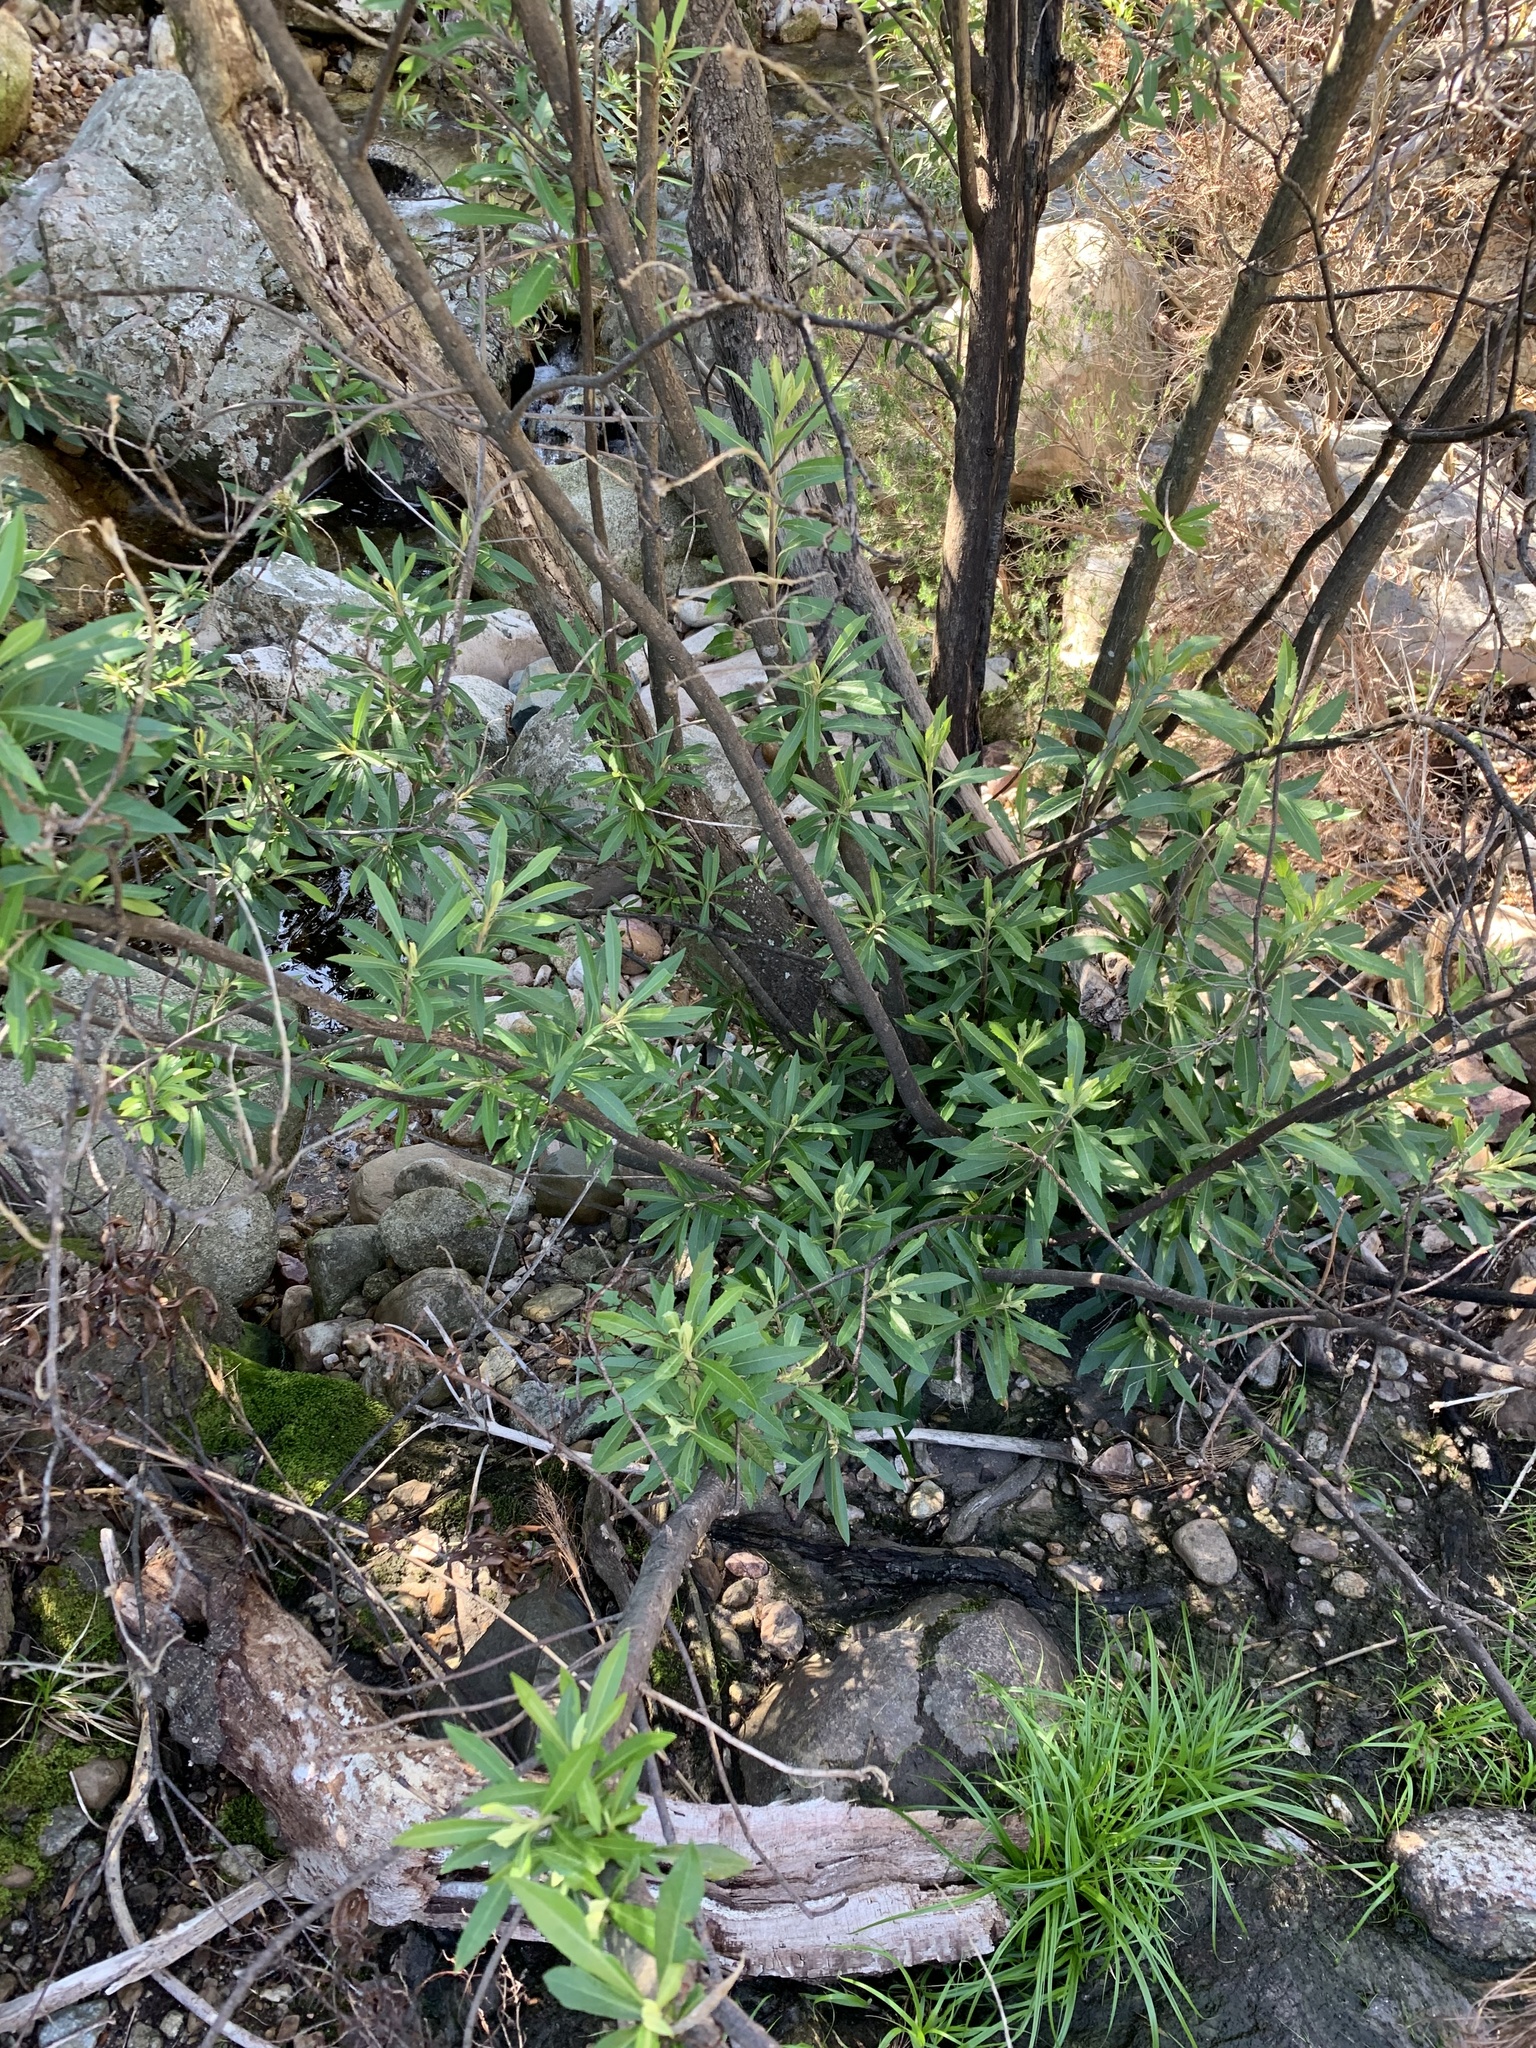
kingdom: Plantae
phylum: Tracheophyta
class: Magnoliopsida
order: Asterales
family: Asteraceae
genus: Brachylaena
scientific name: Brachylaena neriifolia
